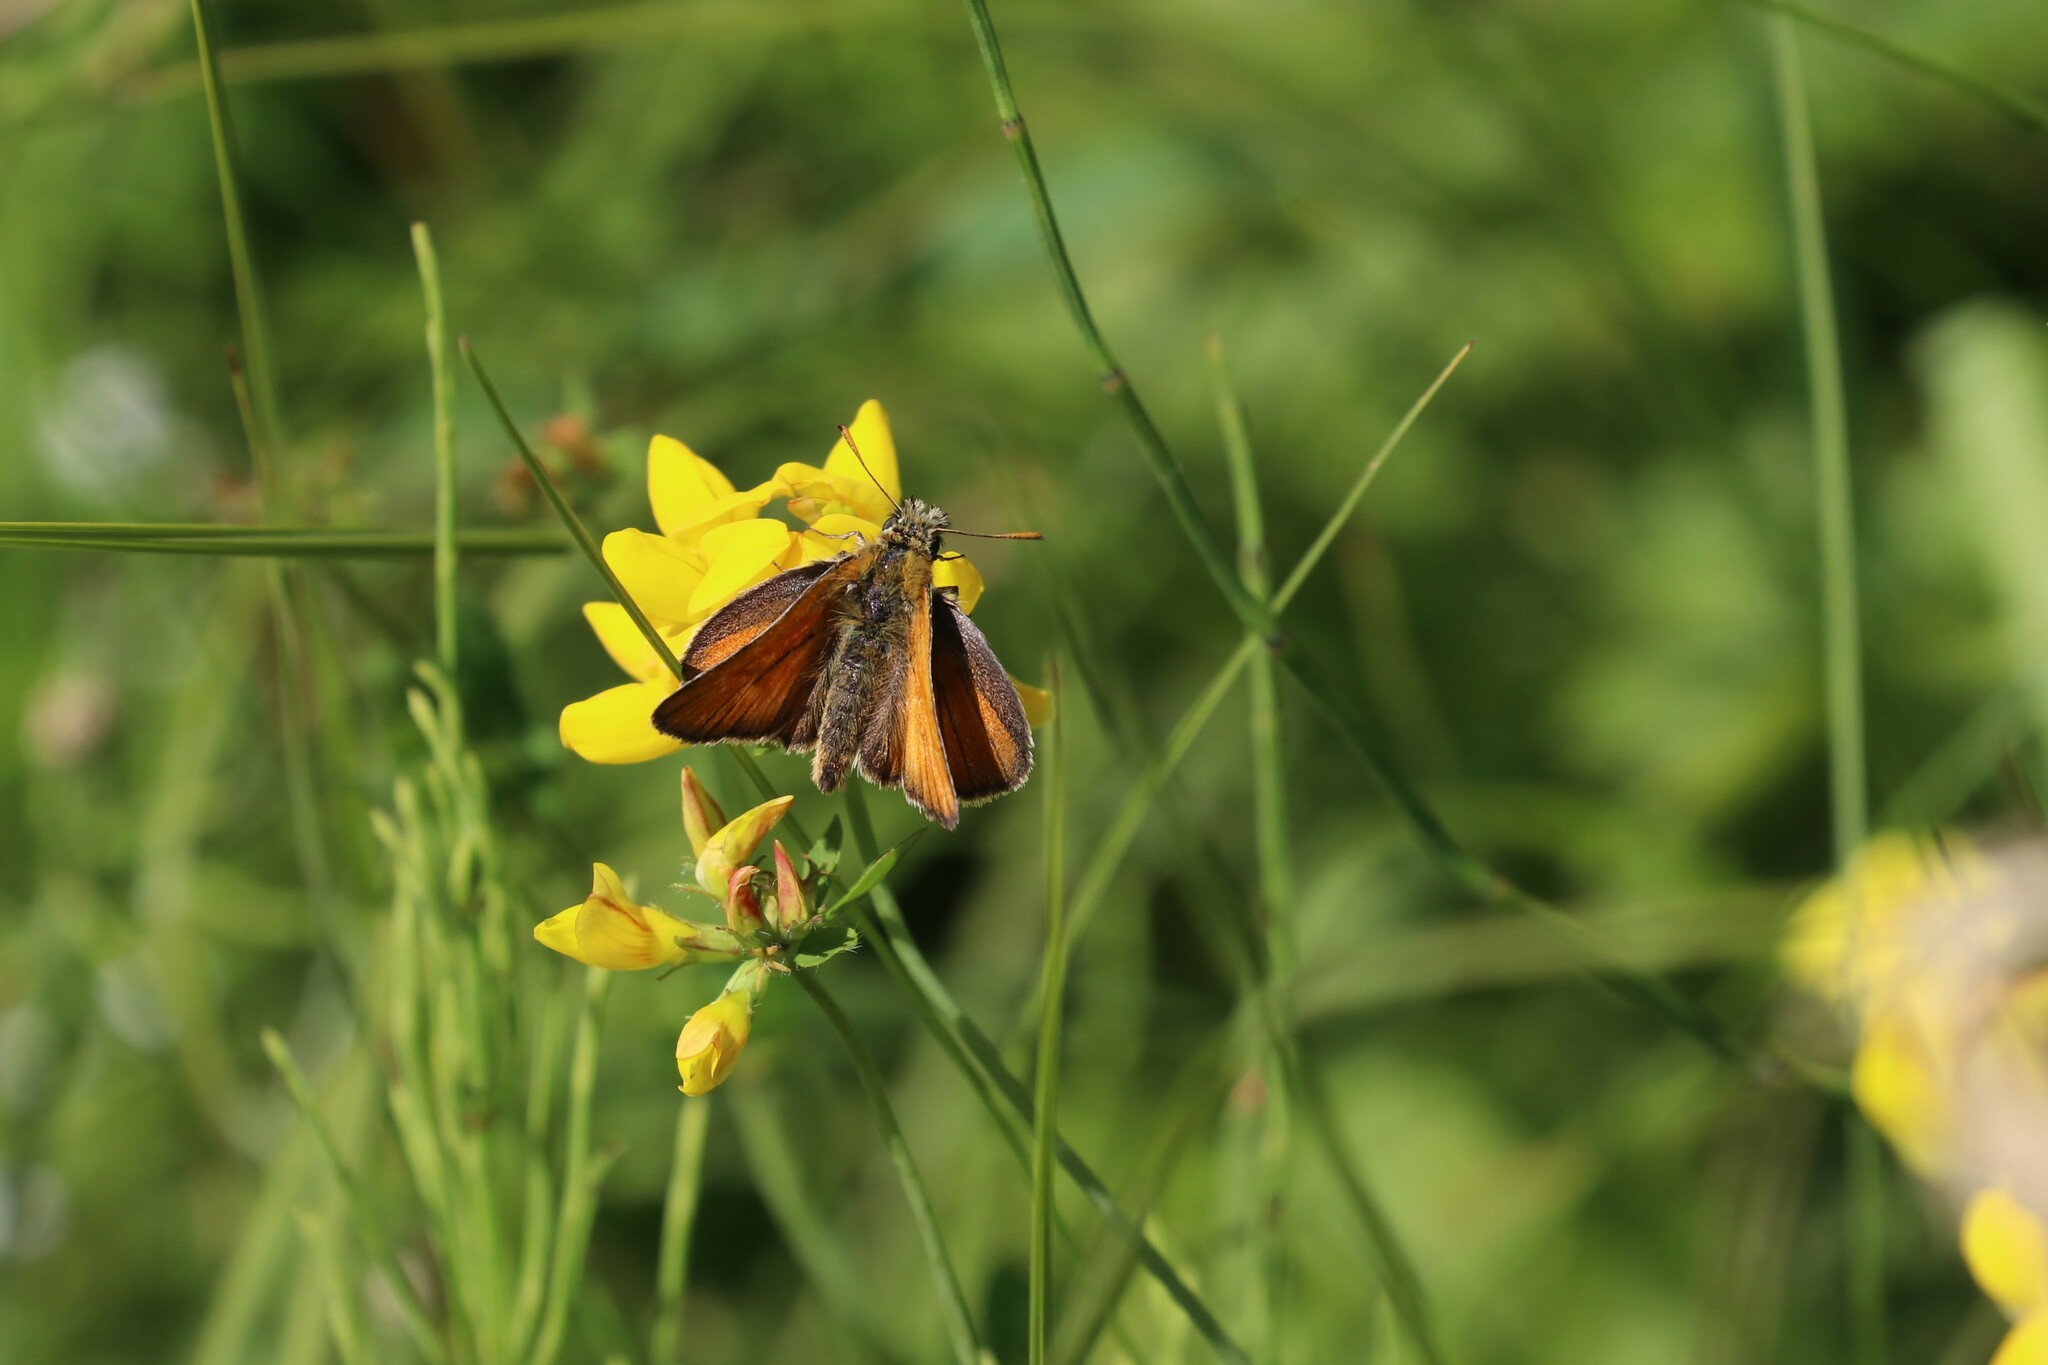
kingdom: Animalia
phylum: Arthropoda
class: Insecta
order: Lepidoptera
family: Hesperiidae
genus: Thymelicus
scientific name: Thymelicus sylvestris
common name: Small skipper
